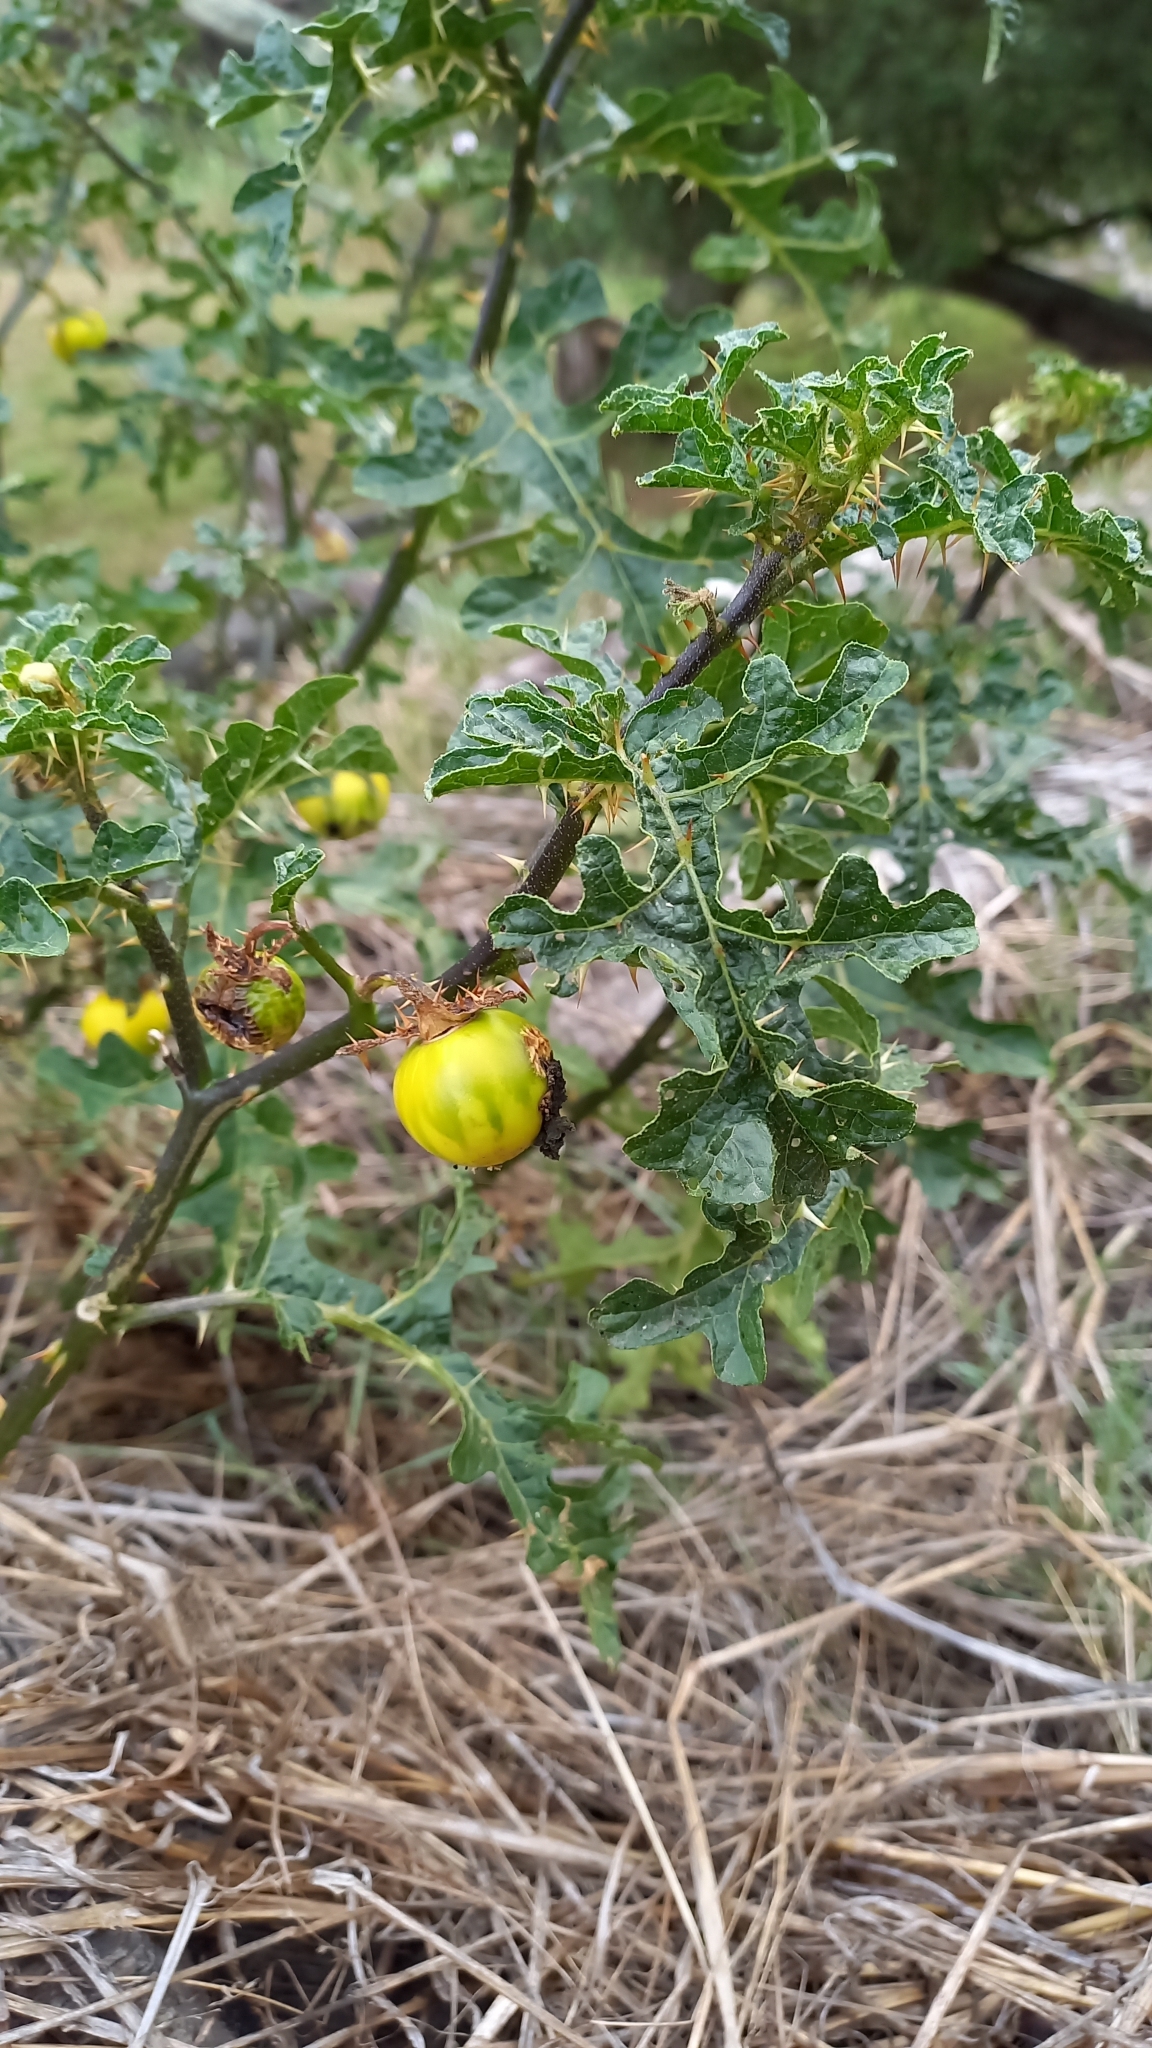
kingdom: Plantae
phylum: Tracheophyta
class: Magnoliopsida
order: Solanales
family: Solanaceae
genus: Solanum
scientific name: Solanum linnaeanum
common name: Nightshade
